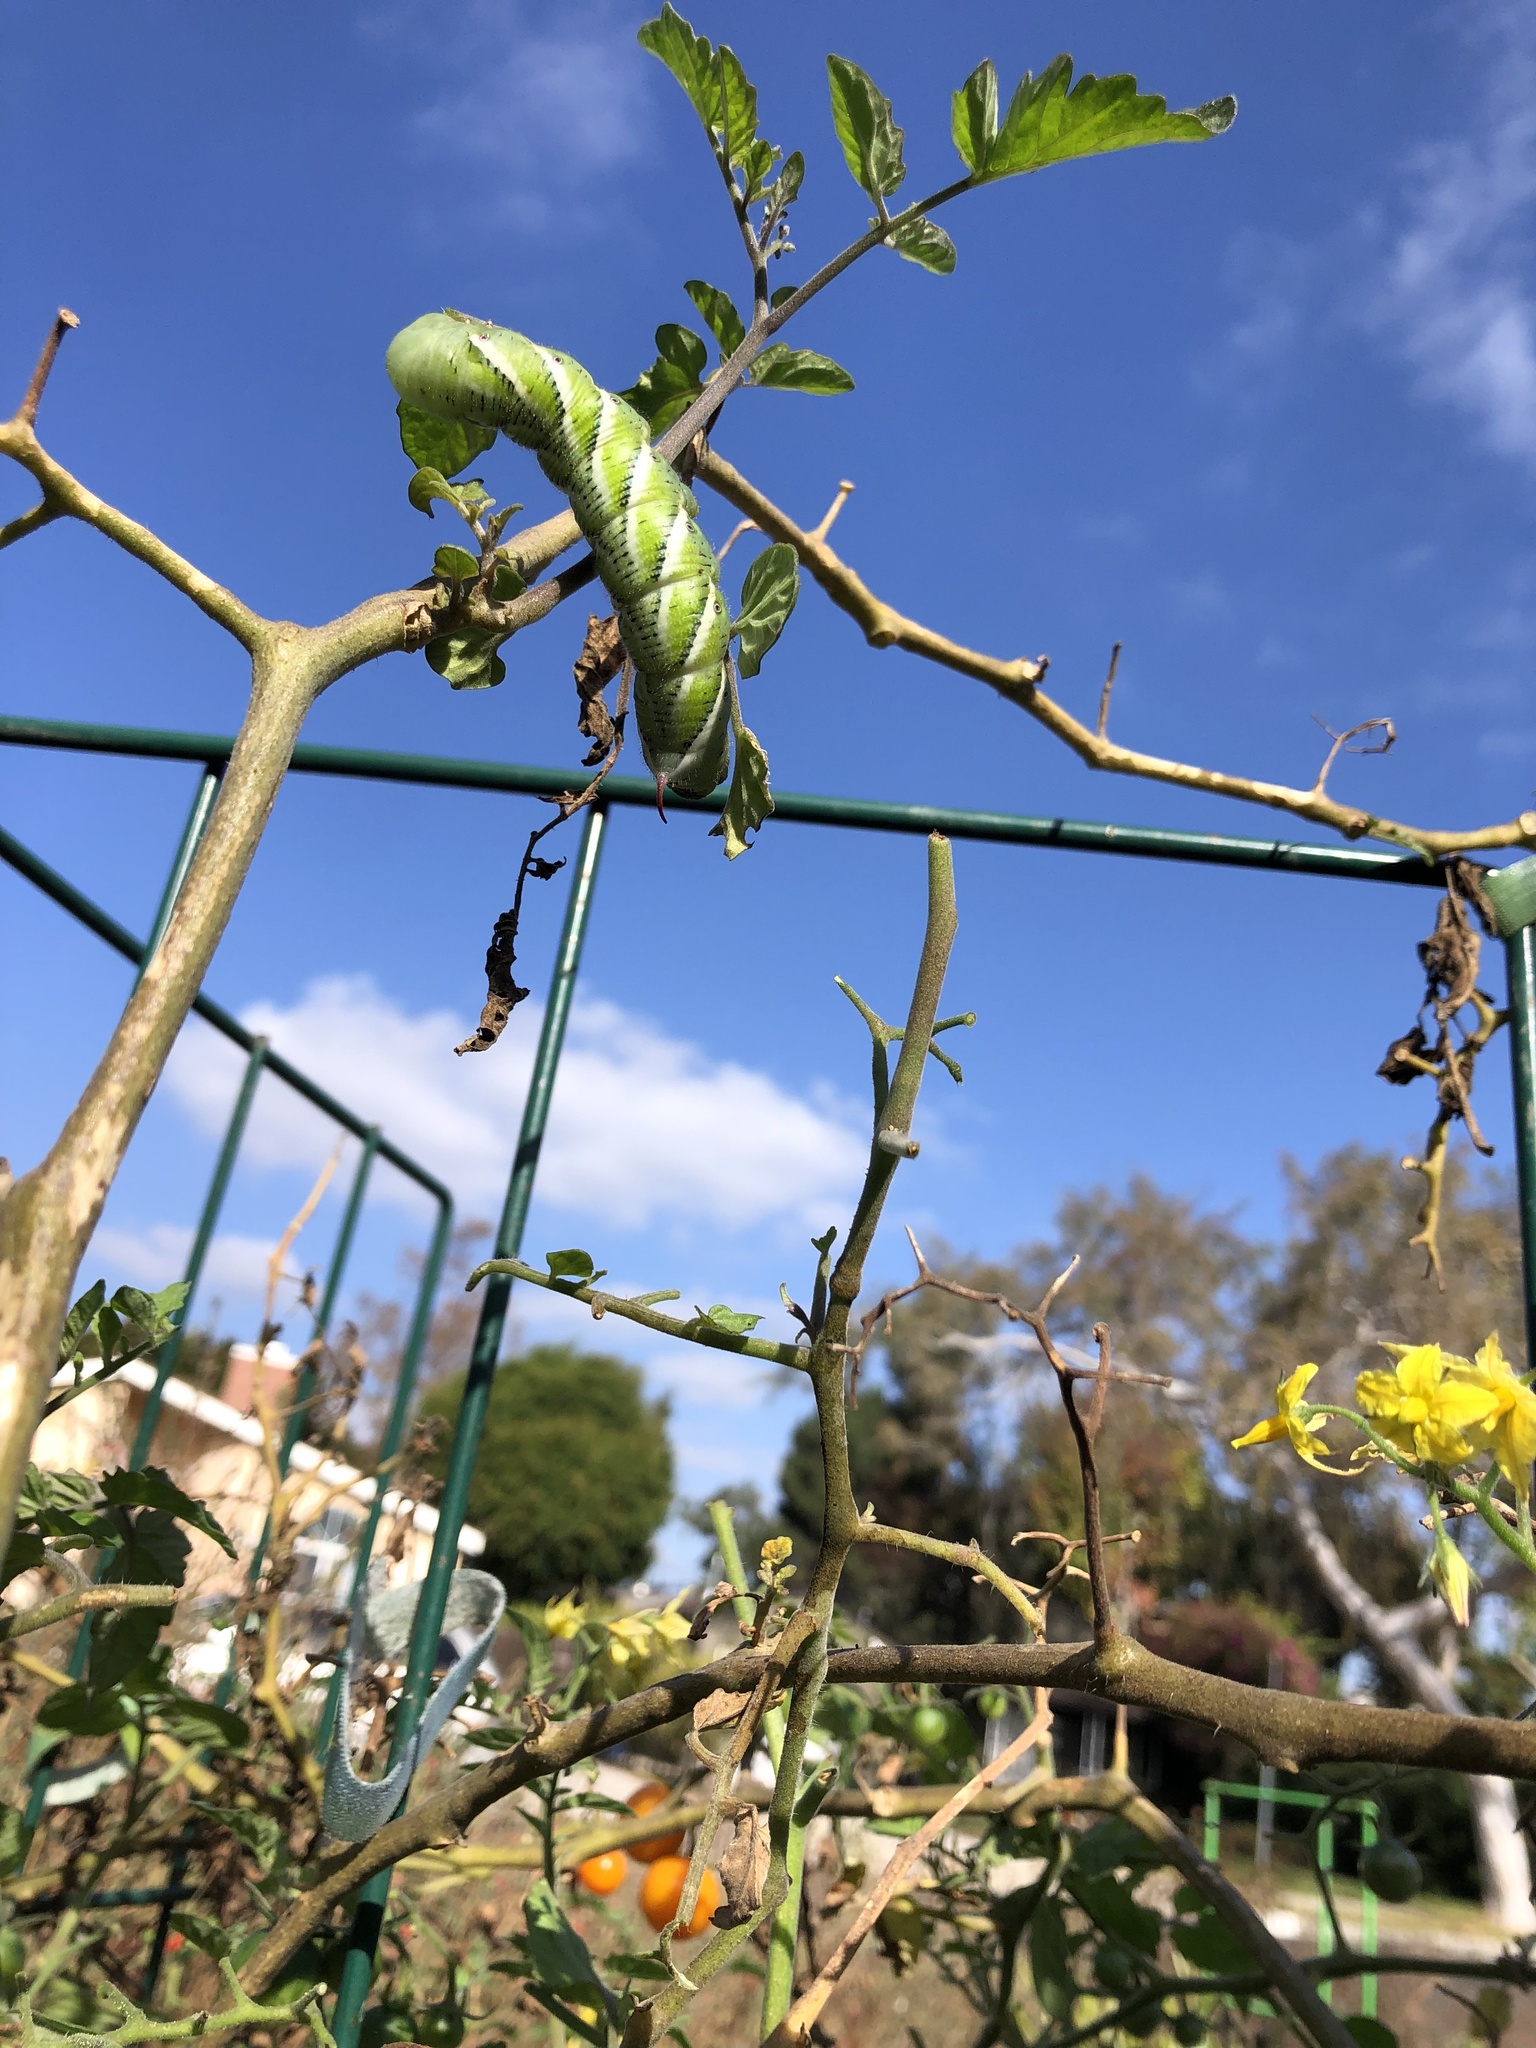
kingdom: Animalia
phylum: Arthropoda
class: Insecta
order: Lepidoptera
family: Sphingidae
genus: Manduca
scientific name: Manduca sexta
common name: Carolina sphinx
